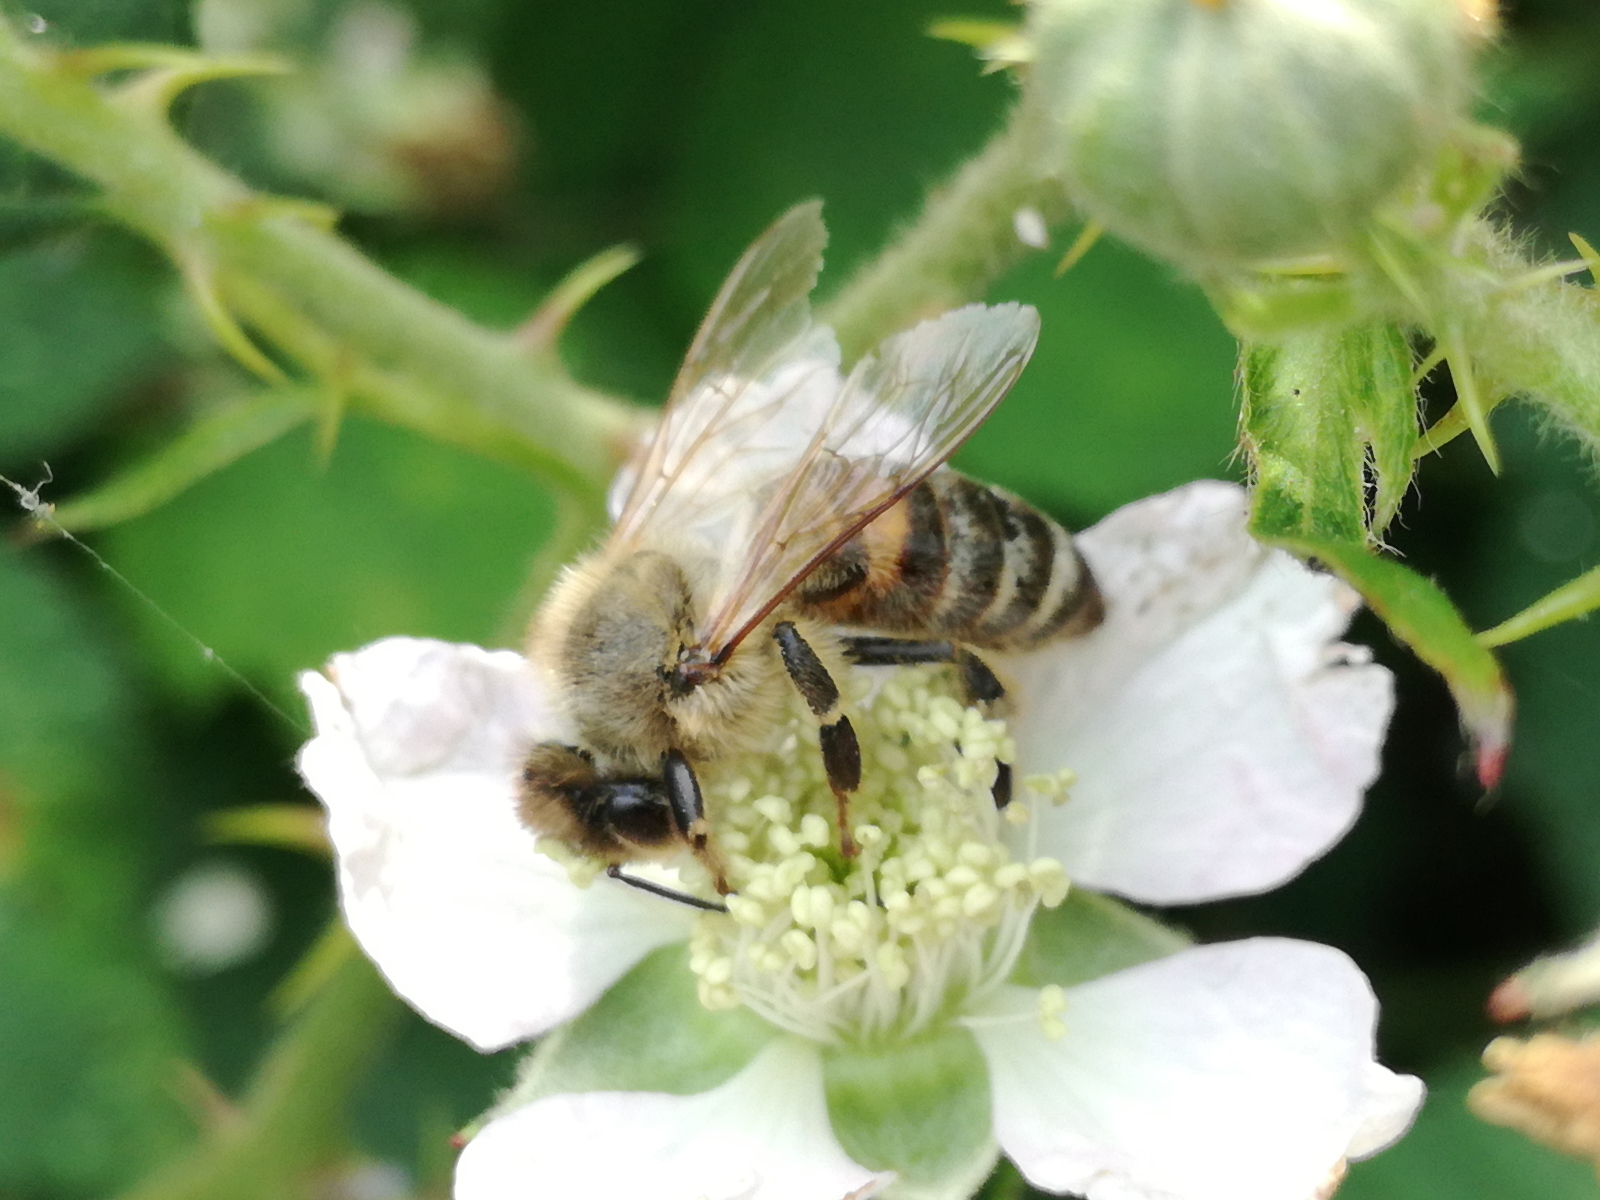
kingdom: Animalia
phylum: Arthropoda
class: Insecta
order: Hymenoptera
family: Apidae
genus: Apis
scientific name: Apis mellifera
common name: Honey bee
